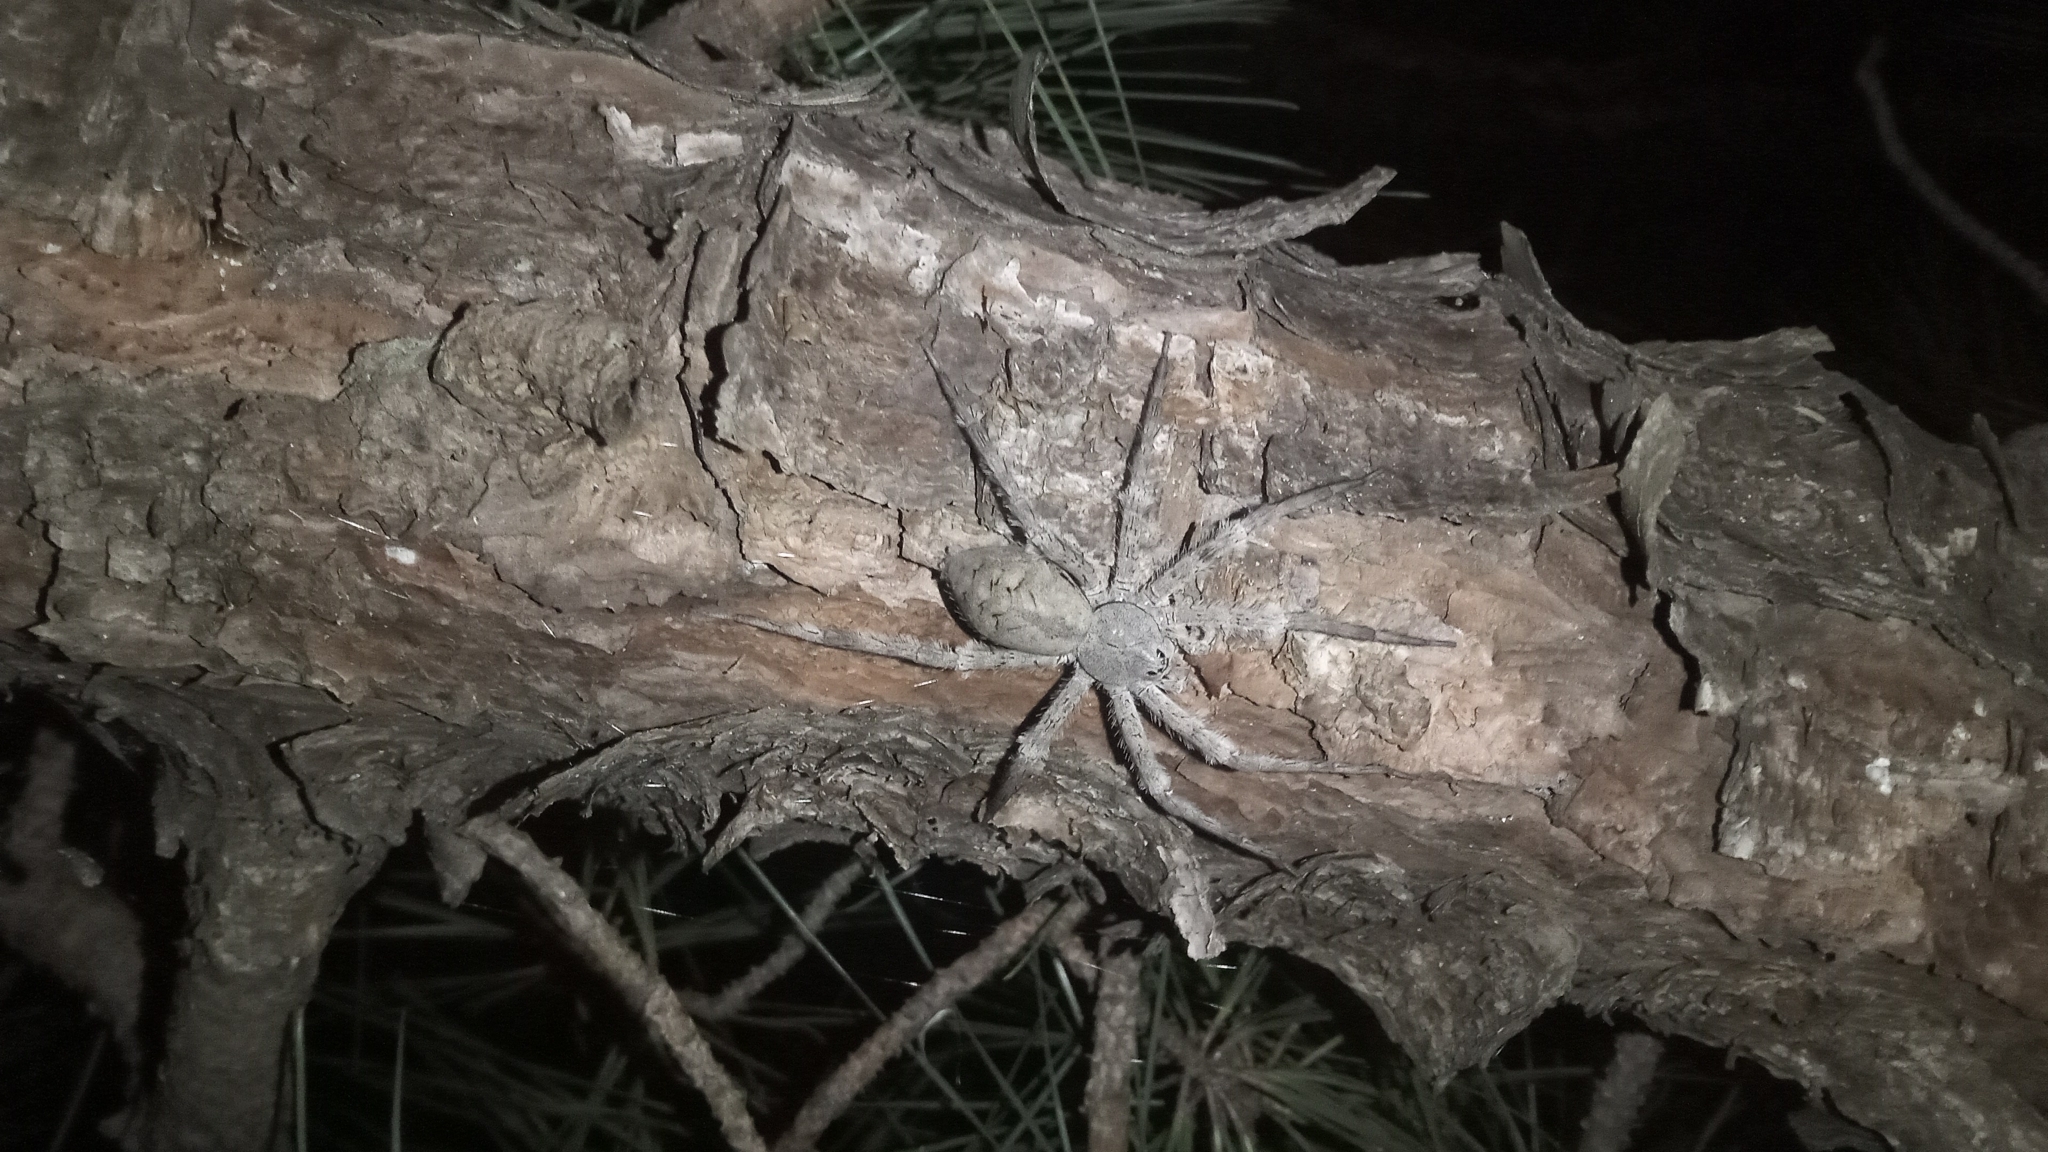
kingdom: Animalia
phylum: Arthropoda
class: Arachnida
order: Araneae
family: Pisauridae
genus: Dolomedes
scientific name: Dolomedes albineus
